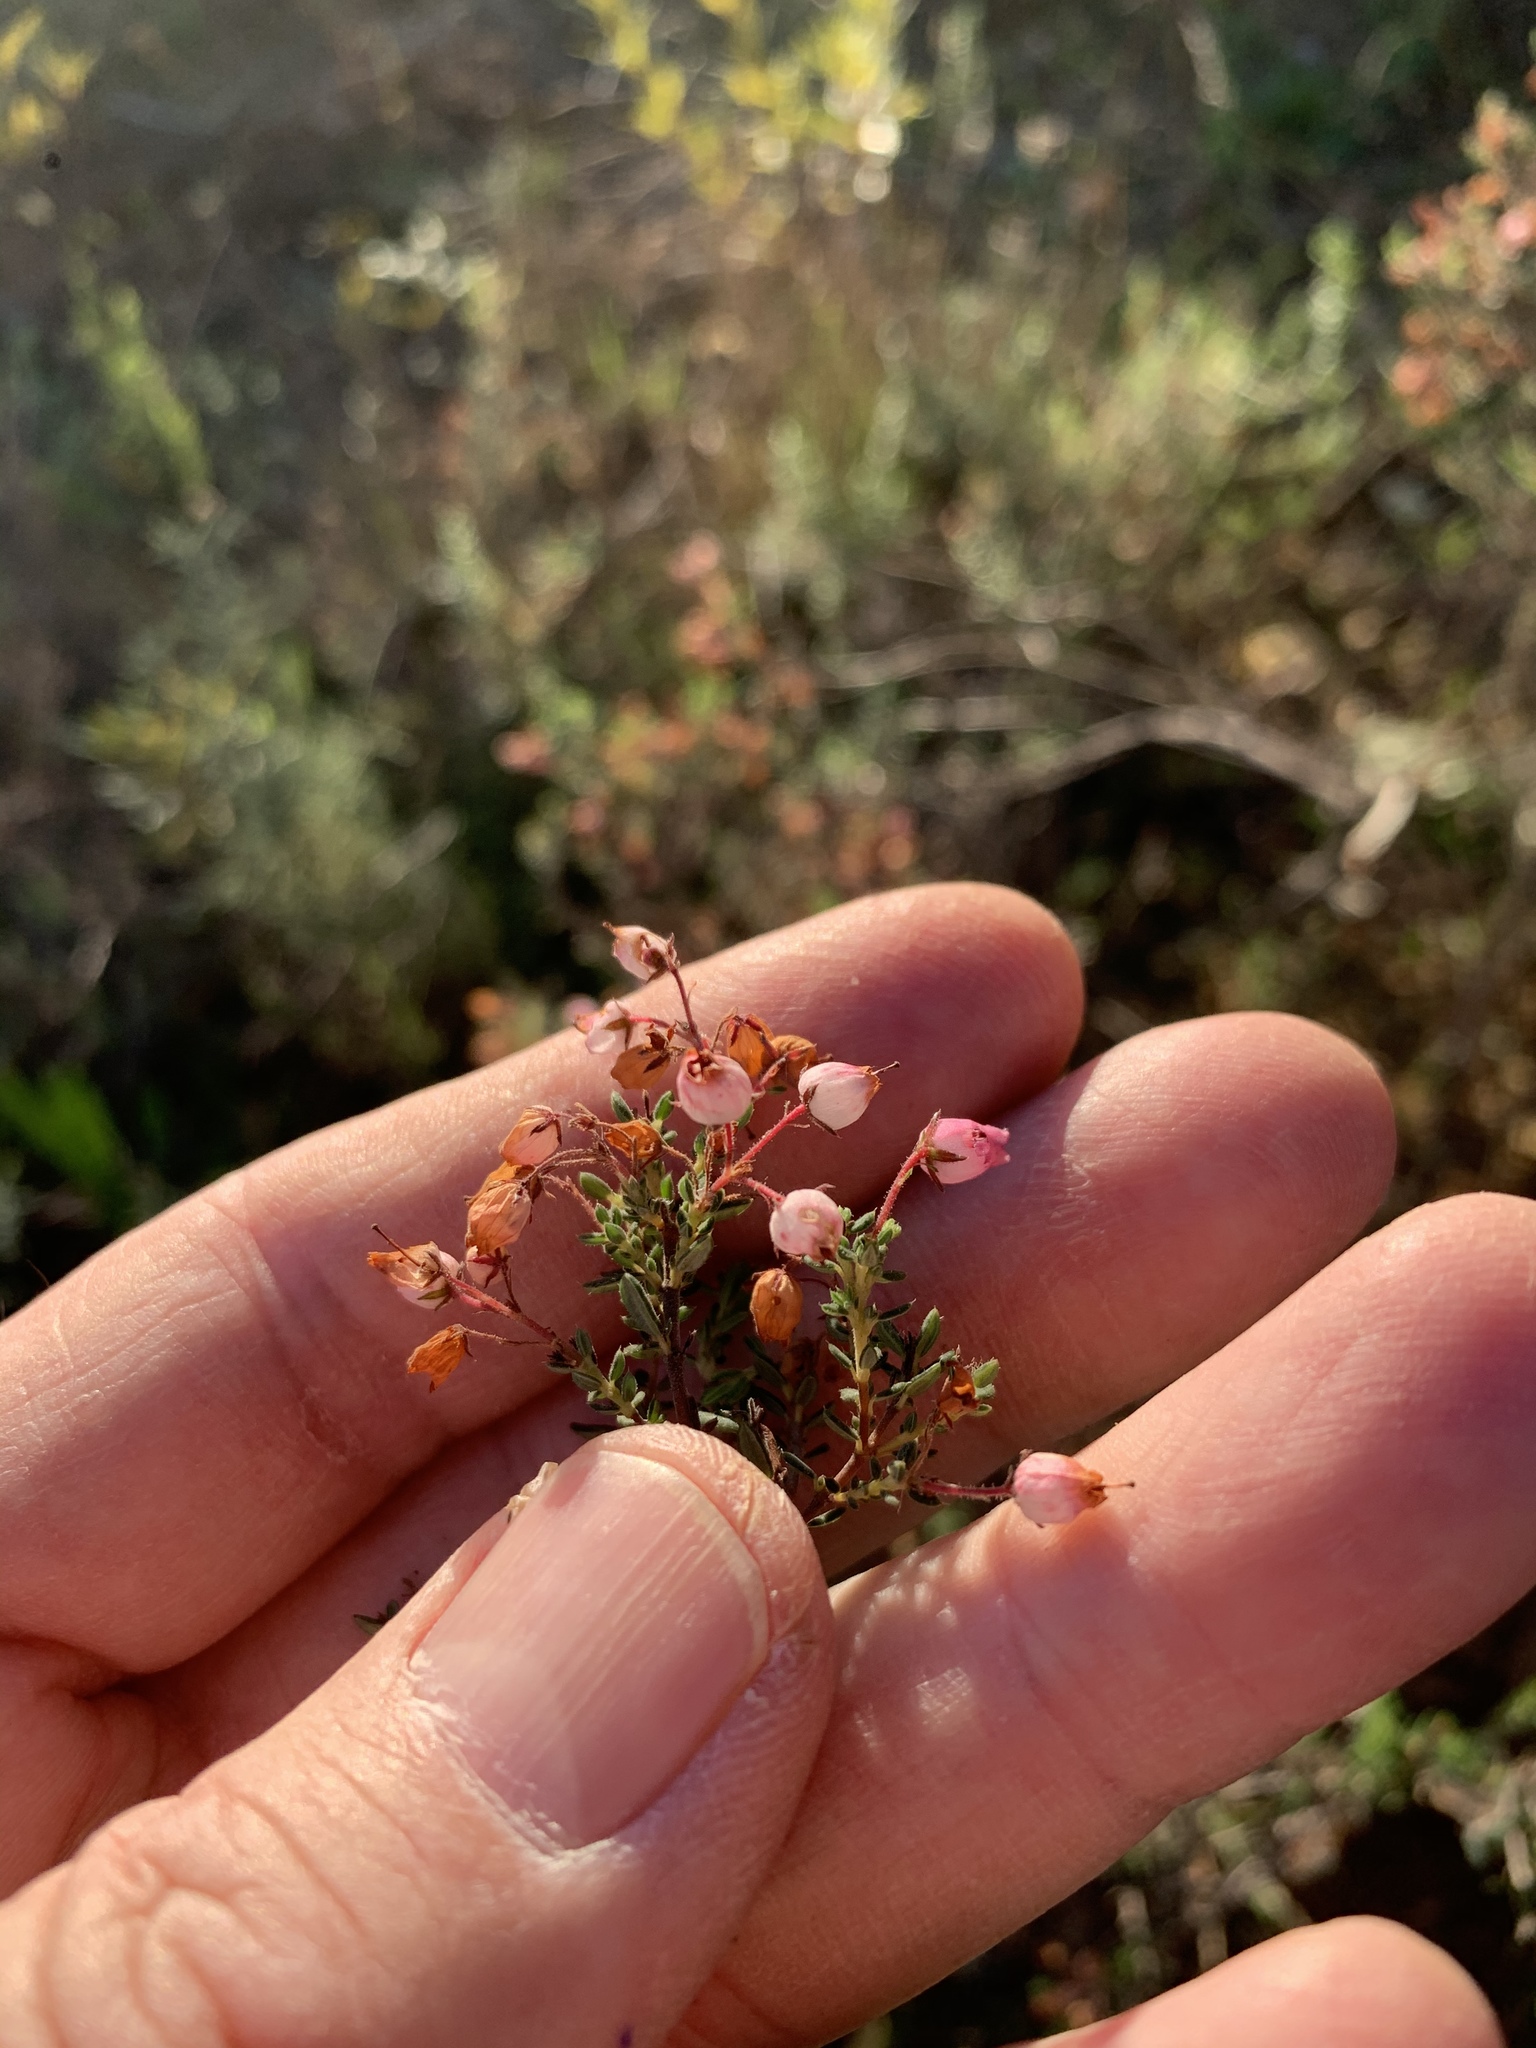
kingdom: Plantae
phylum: Tracheophyta
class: Magnoliopsida
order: Ericales
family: Ericaceae
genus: Erica
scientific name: Erica hirta
